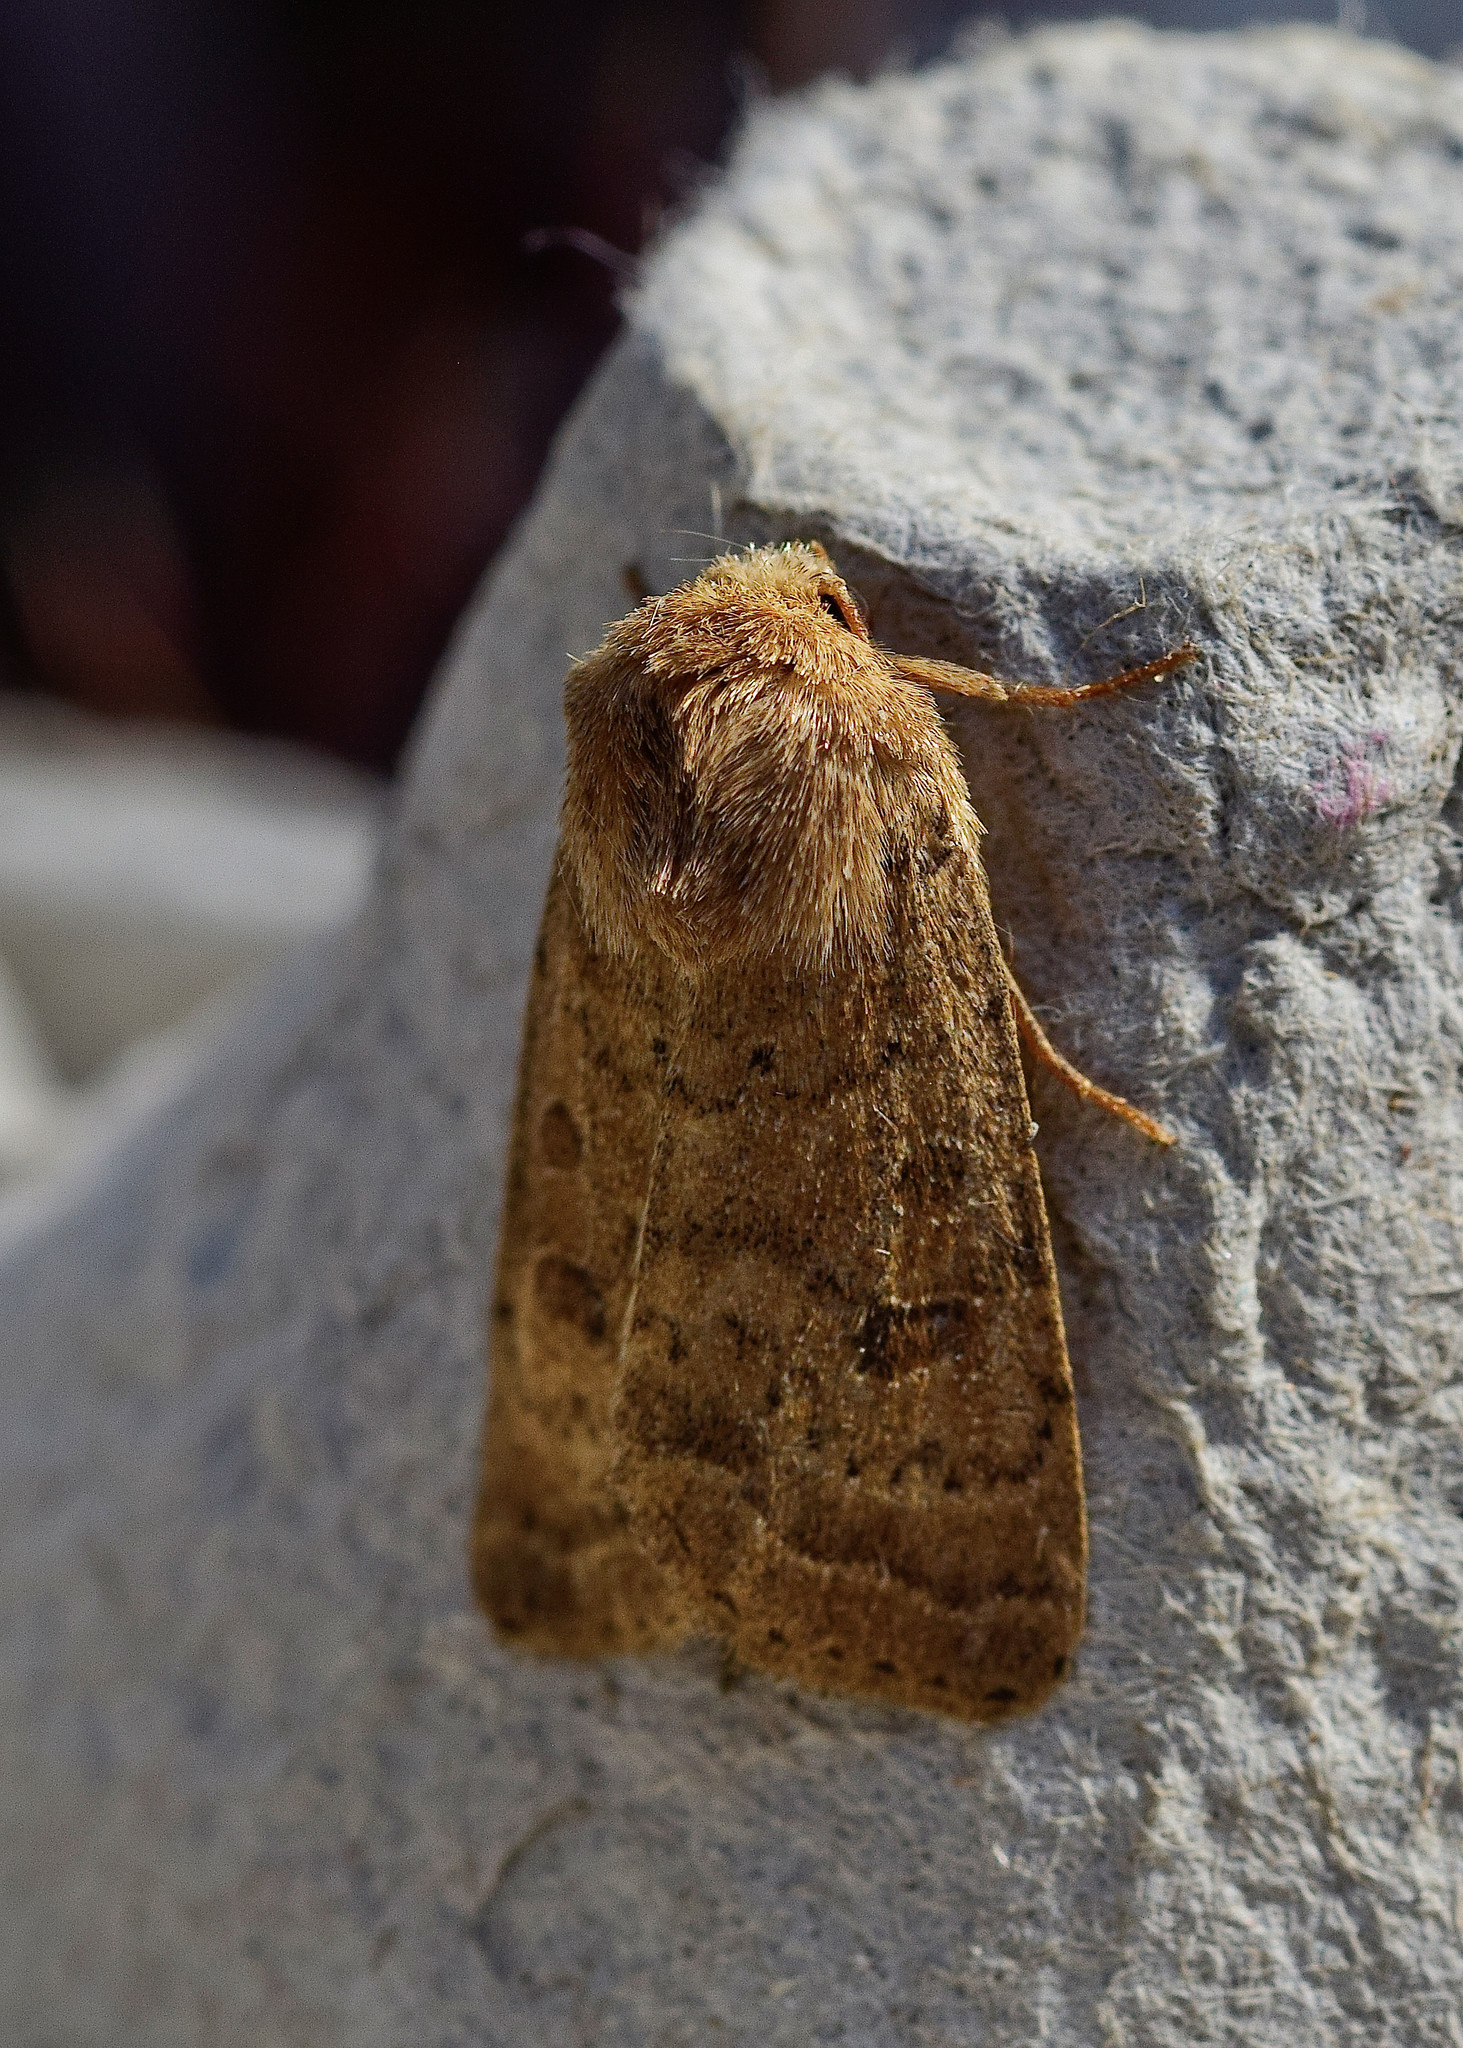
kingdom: Animalia
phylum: Arthropoda
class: Insecta
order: Lepidoptera
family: Noctuidae
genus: Hoplodrina
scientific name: Hoplodrina octogenaria
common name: Uncertain
